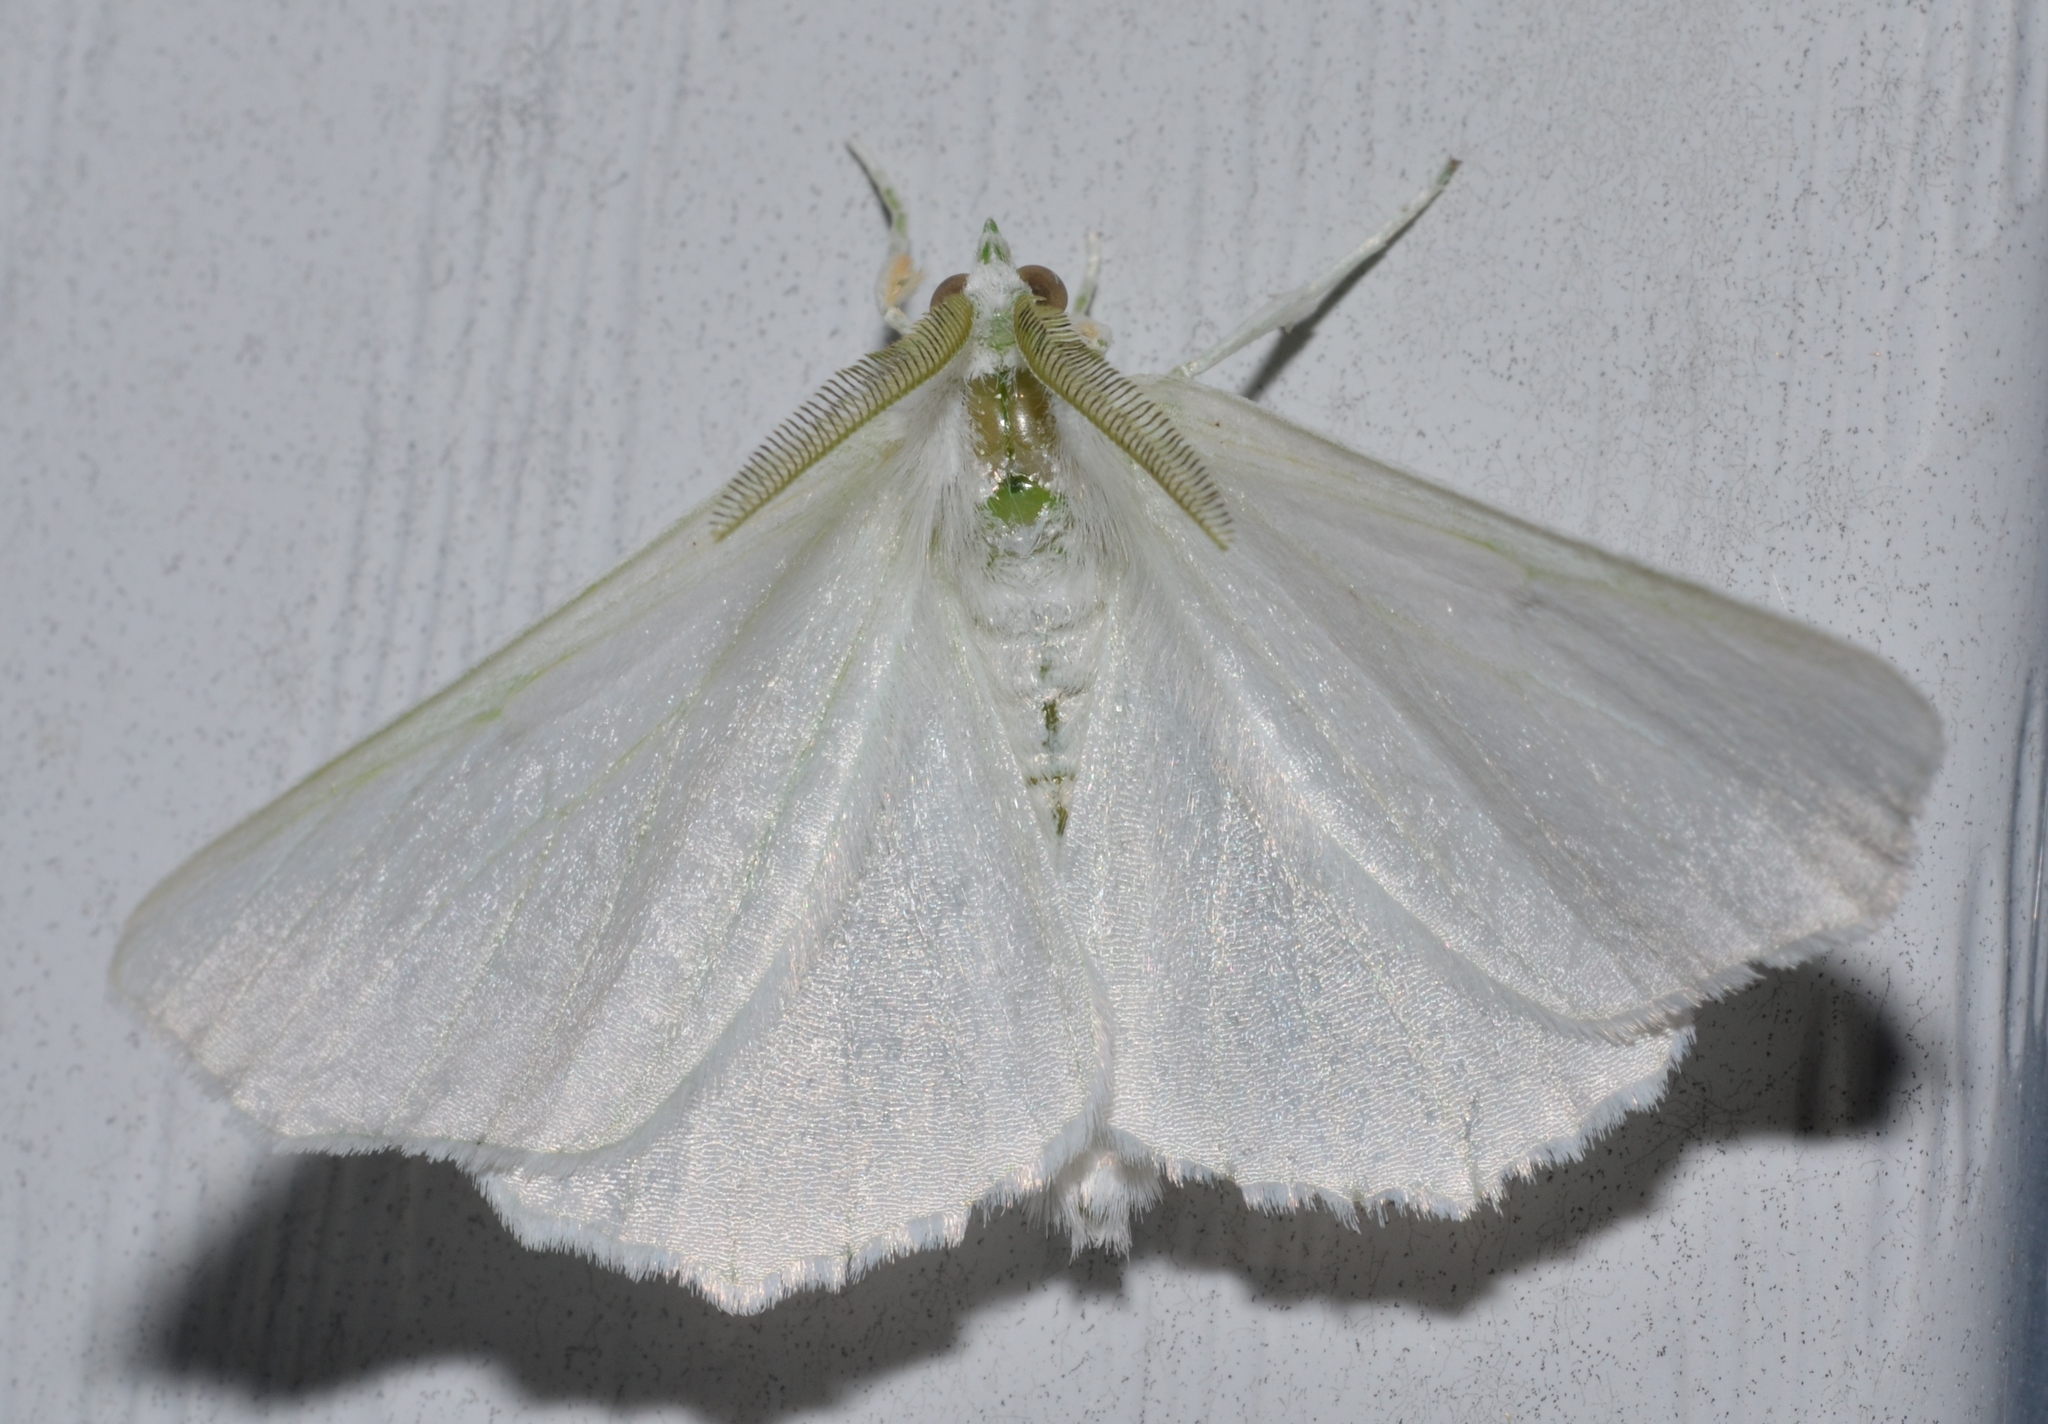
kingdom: Animalia
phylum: Arthropoda
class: Insecta
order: Lepidoptera
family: Geometridae
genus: Ennomos
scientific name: Ennomos subsignaria
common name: Elm spanworm
